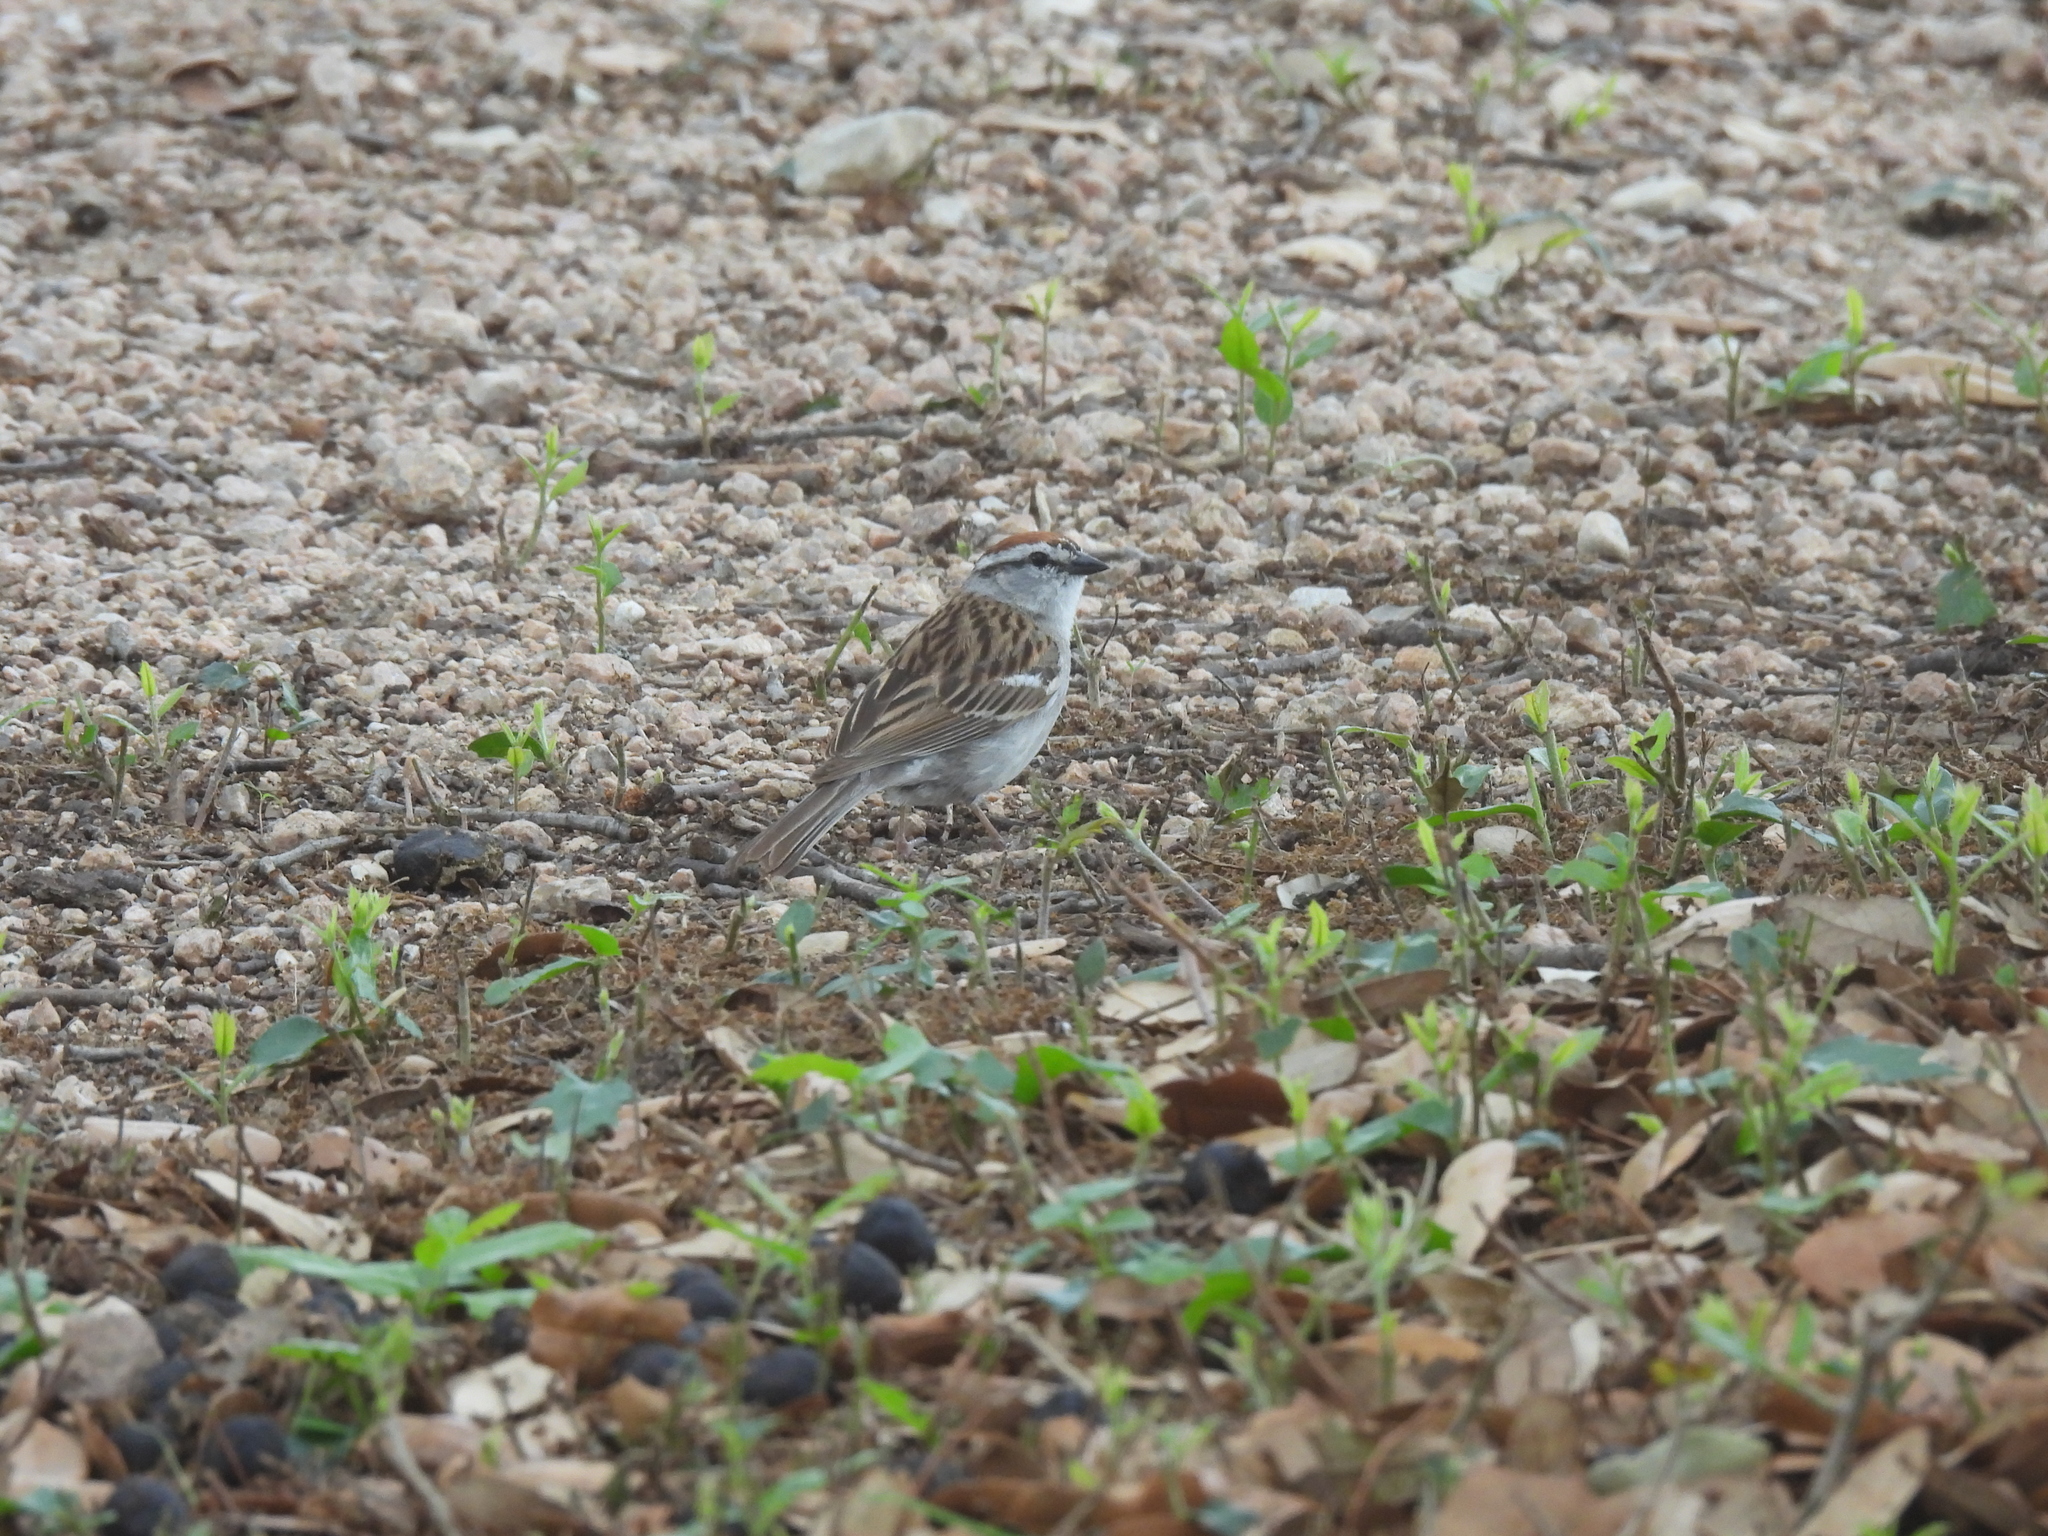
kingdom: Animalia
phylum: Chordata
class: Aves
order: Passeriformes
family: Passerellidae
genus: Spizella
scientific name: Spizella passerina
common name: Chipping sparrow
